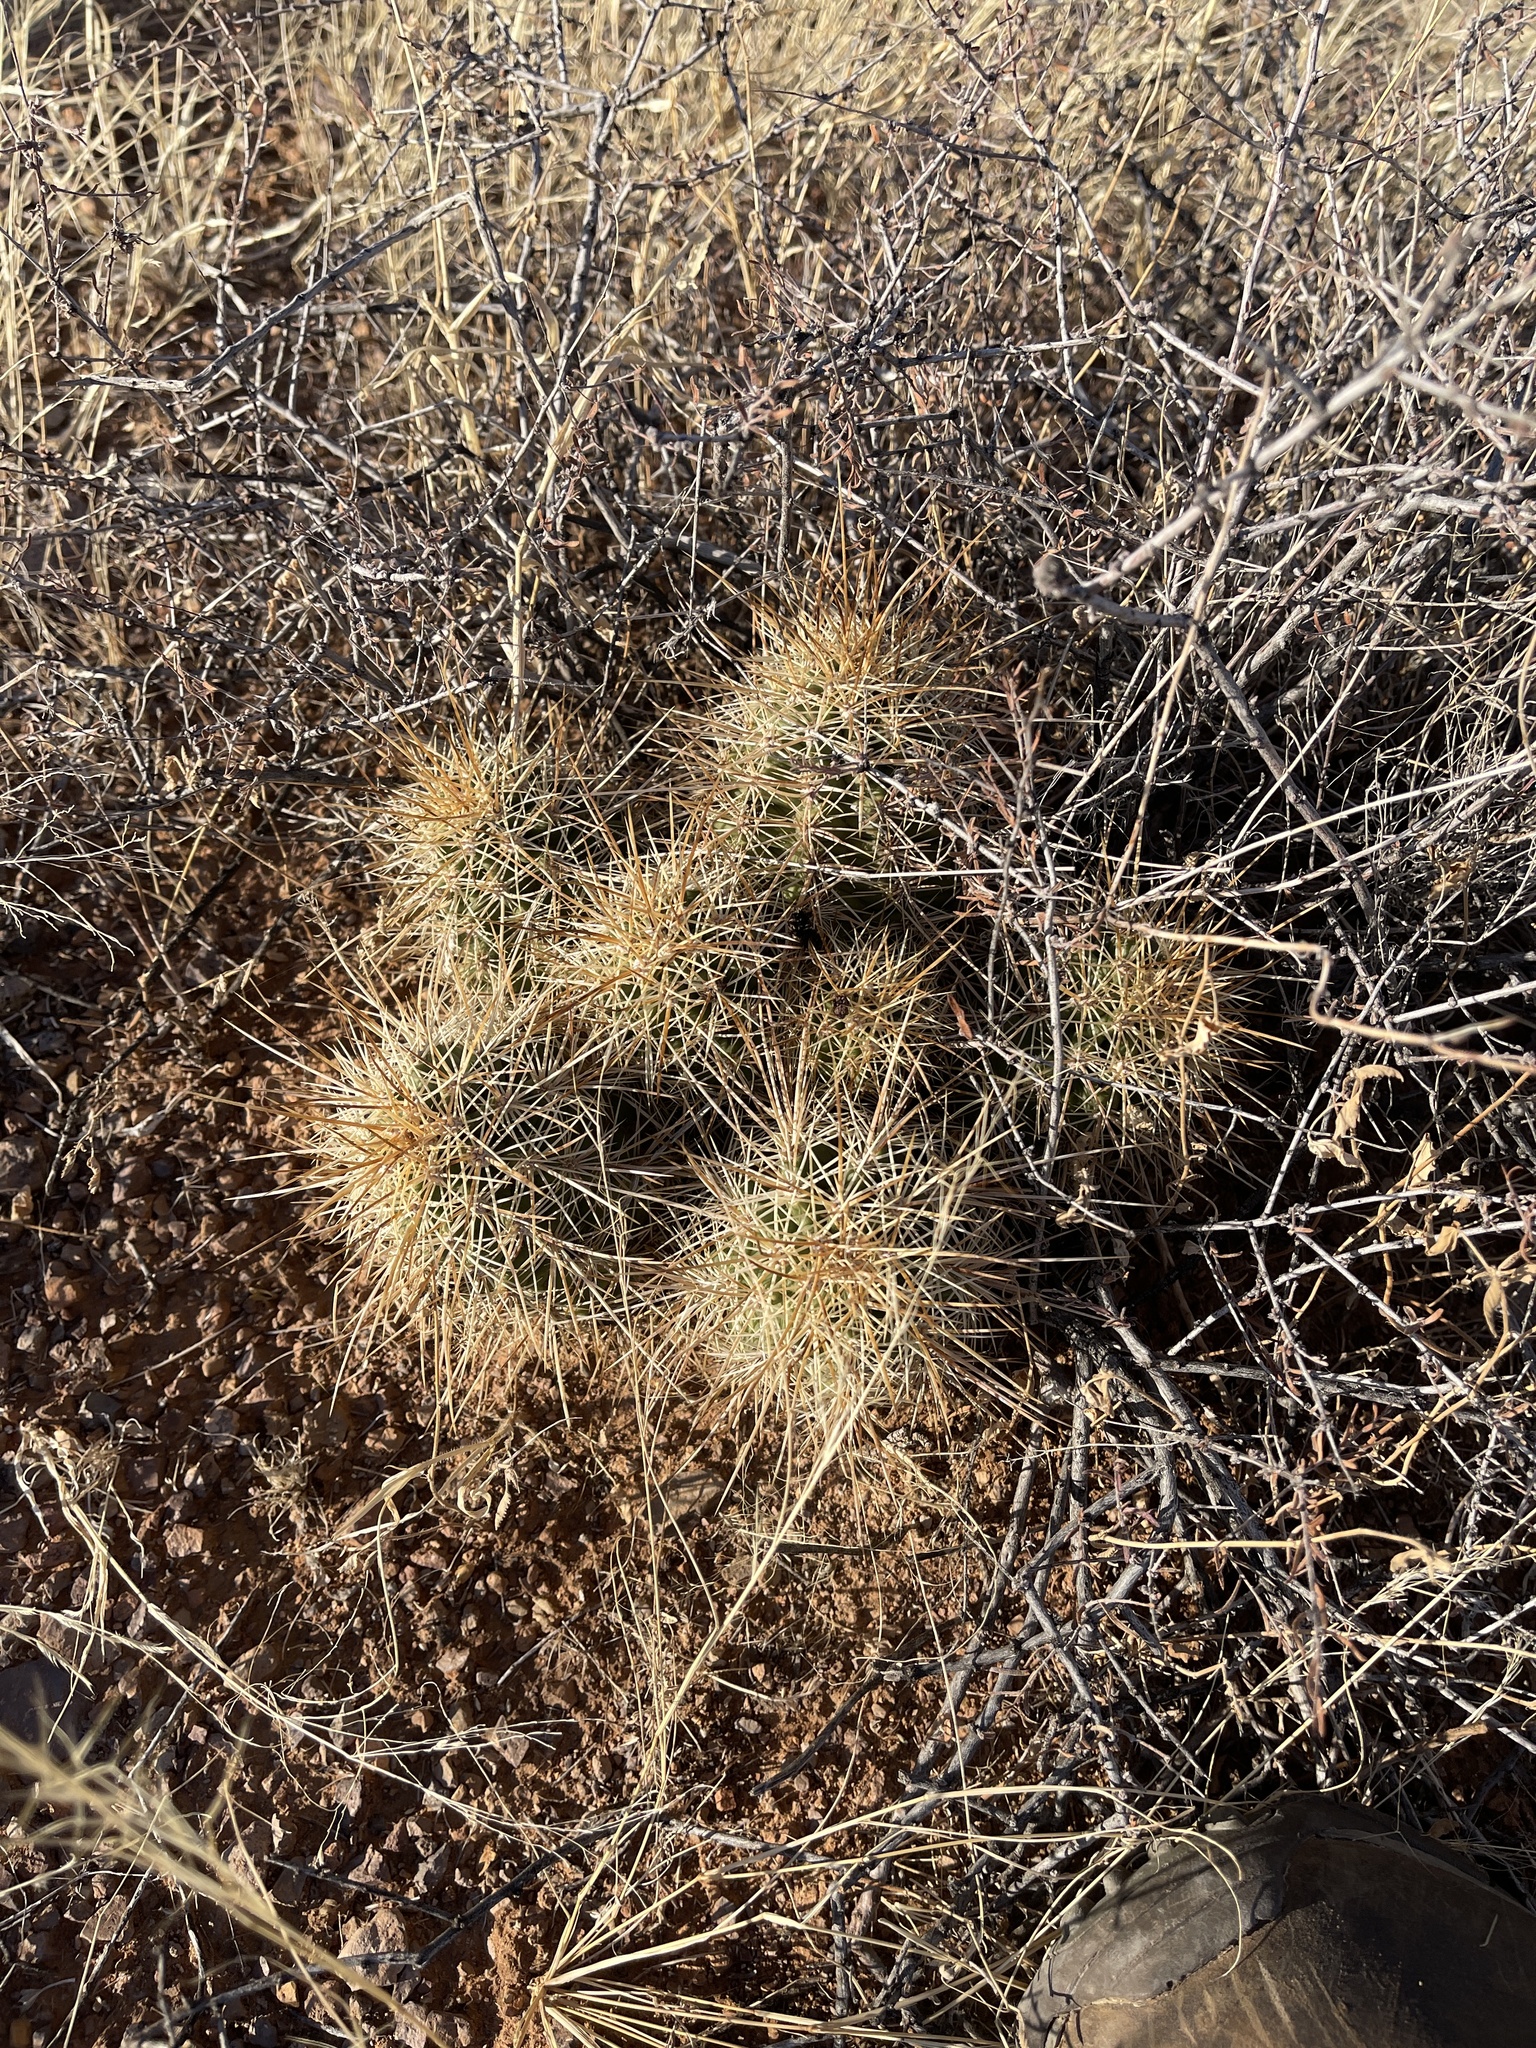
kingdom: Plantae
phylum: Tracheophyta
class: Magnoliopsida
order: Caryophyllales
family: Cactaceae
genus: Echinocereus
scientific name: Echinocereus coccineus
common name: Scarlet hedgehog cactus
